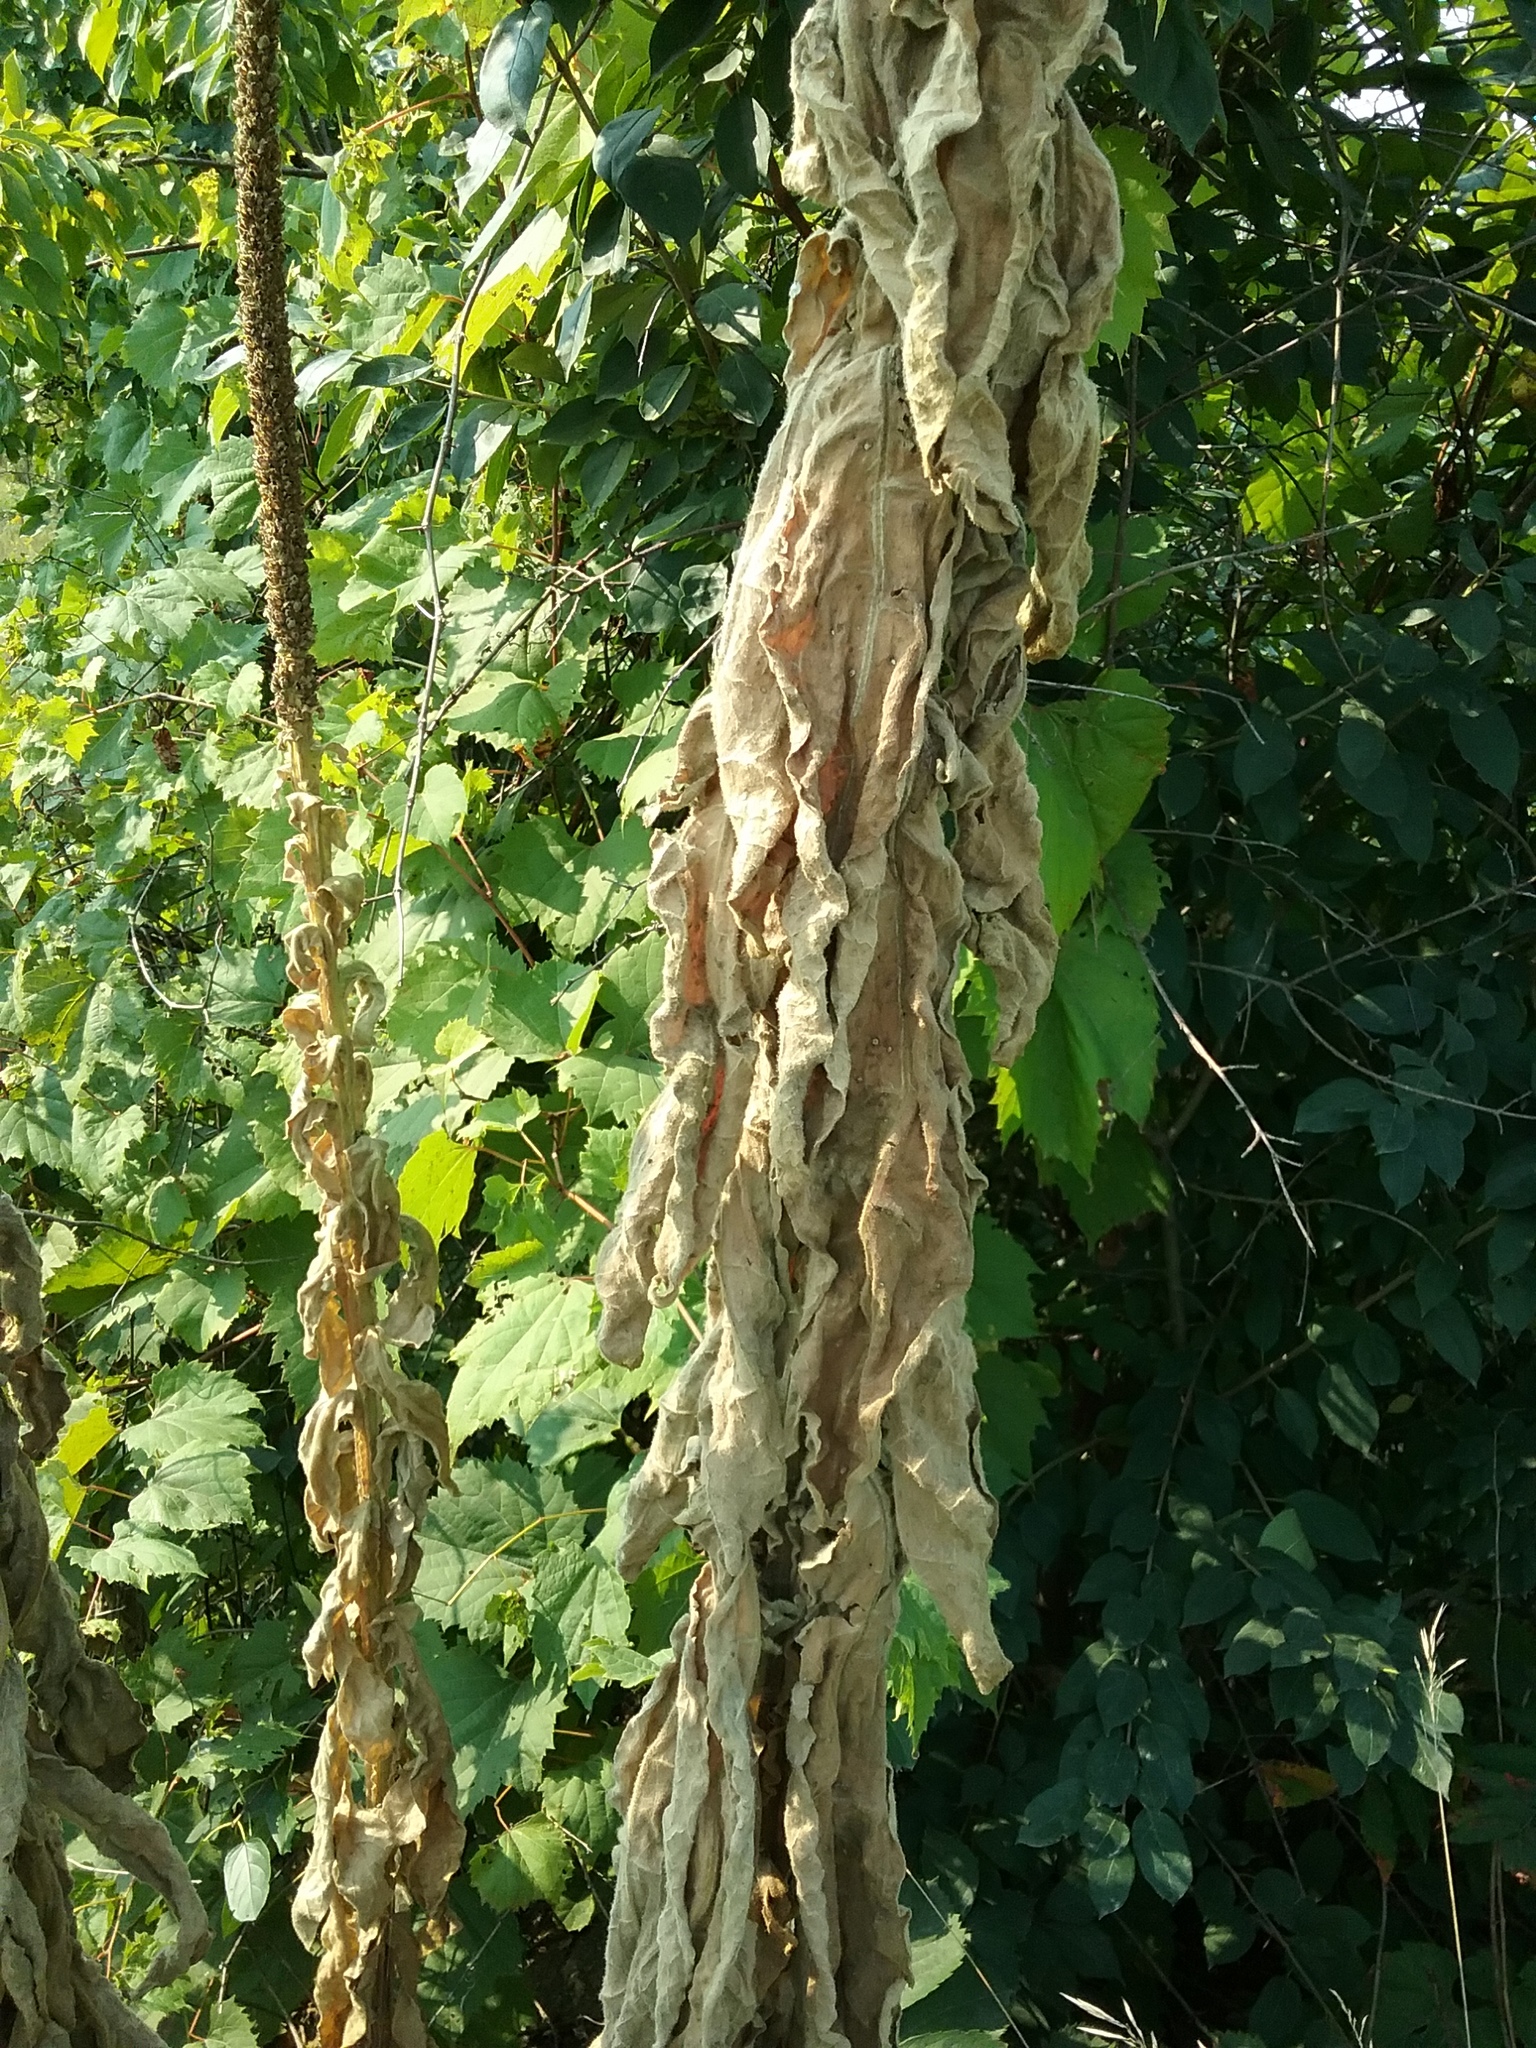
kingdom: Plantae
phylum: Tracheophyta
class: Magnoliopsida
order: Lamiales
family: Scrophulariaceae
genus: Verbascum
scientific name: Verbascum thapsus
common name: Common mullein
